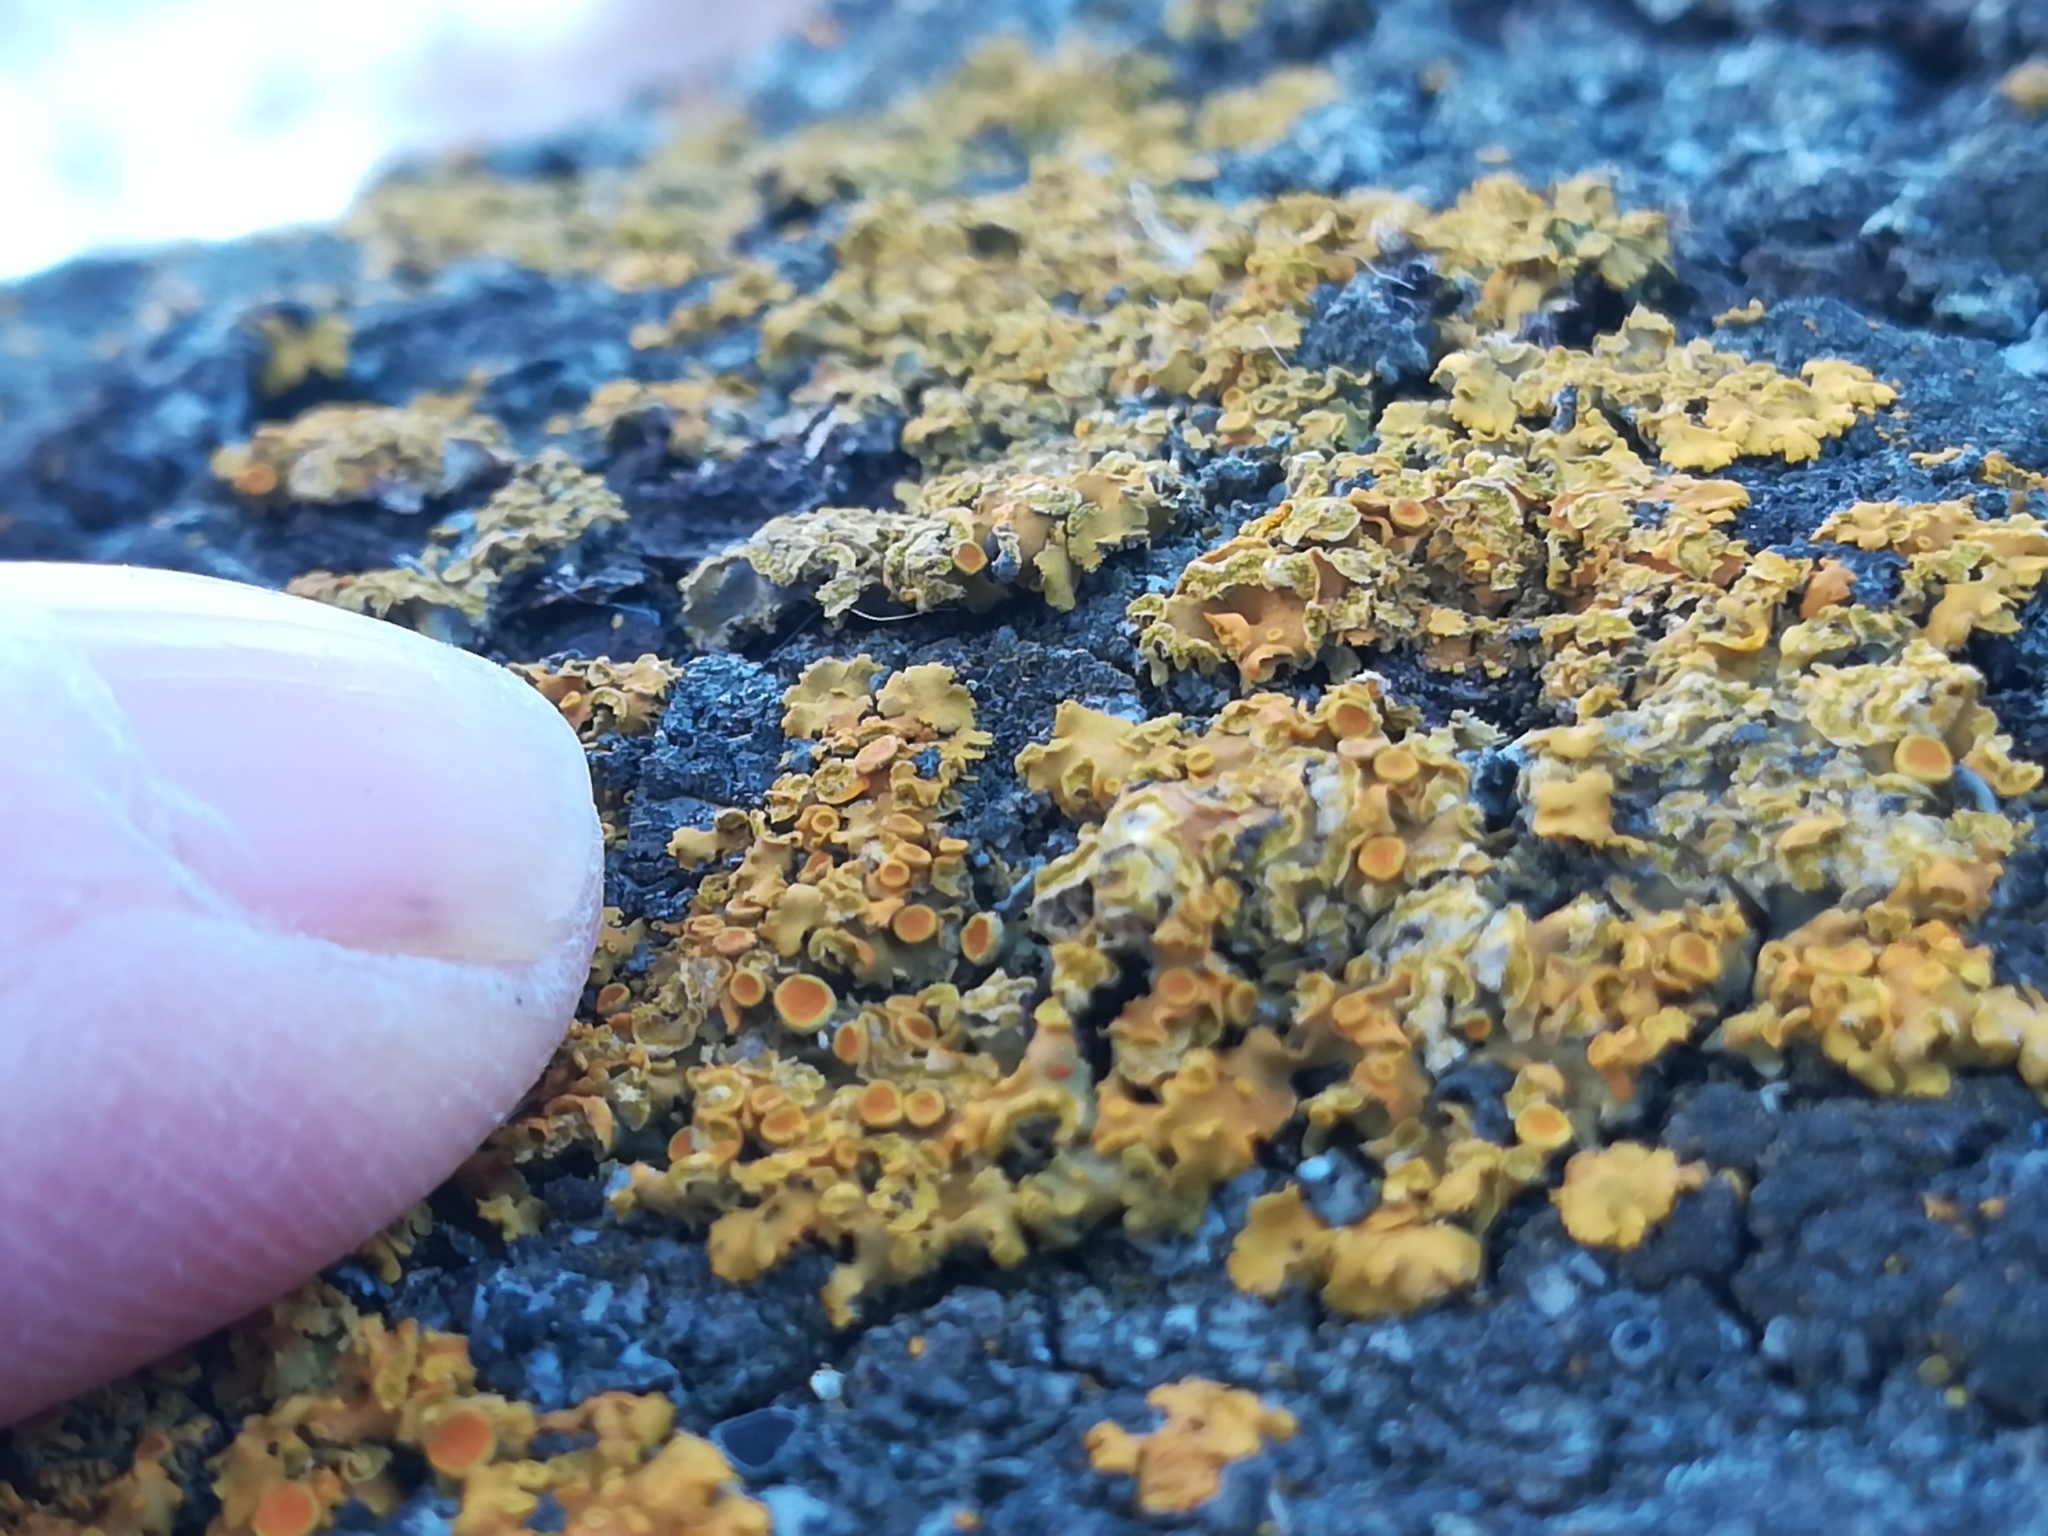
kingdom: Fungi
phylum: Ascomycota
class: Lecanoromycetes
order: Teloschistales
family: Teloschistaceae
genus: Oxneria
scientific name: Oxneria fallax
